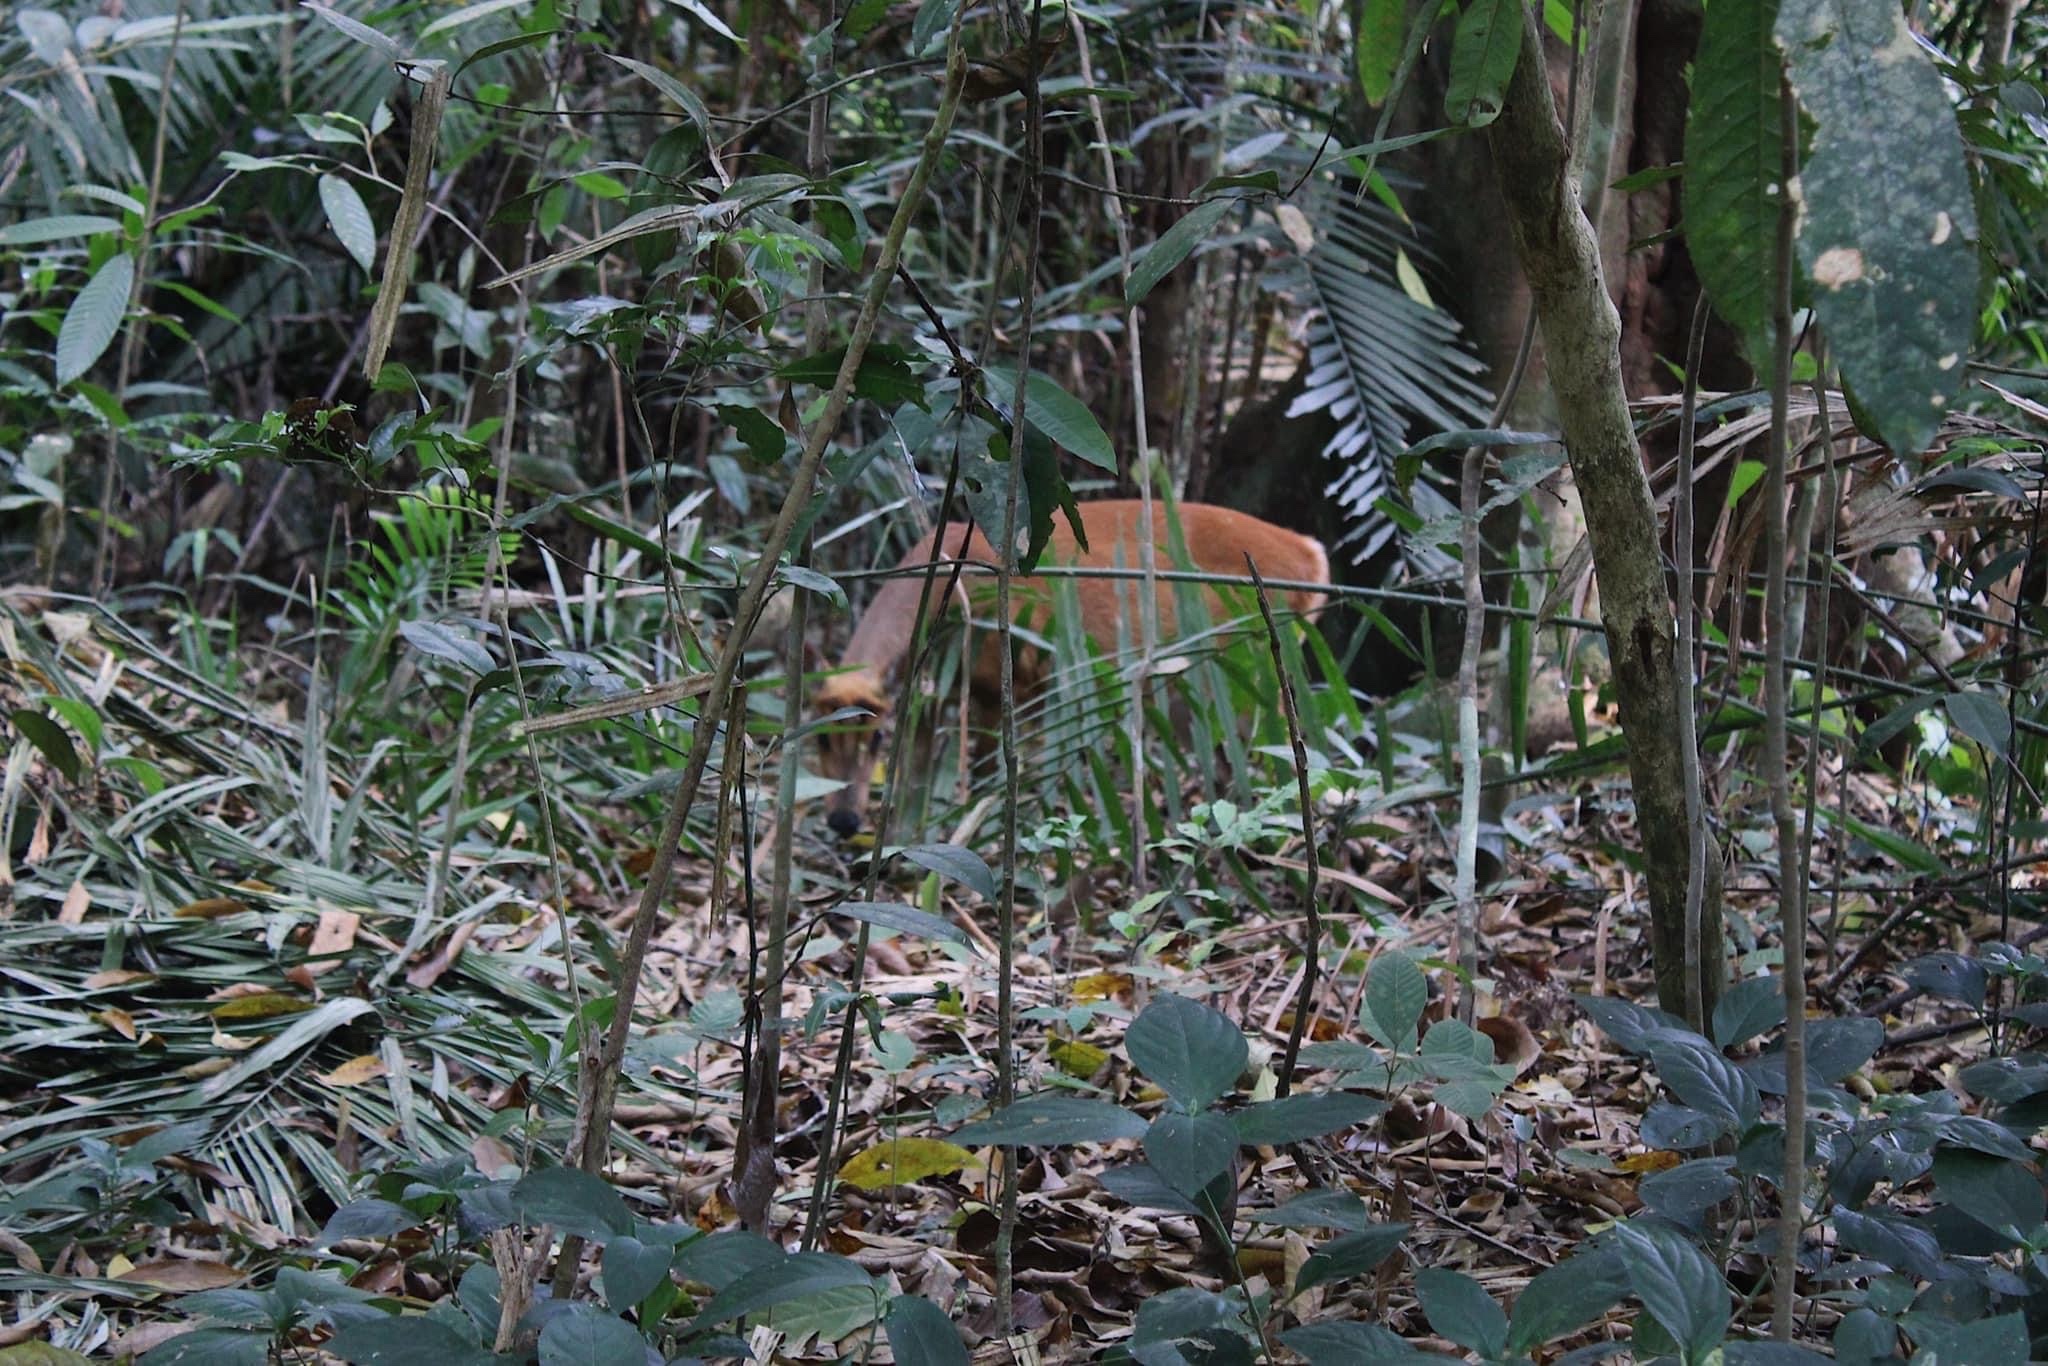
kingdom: Animalia
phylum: Chordata
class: Mammalia
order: Artiodactyla
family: Cervidae
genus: Muntiacus
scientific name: Muntiacus muntjak
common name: Indian muntjac
